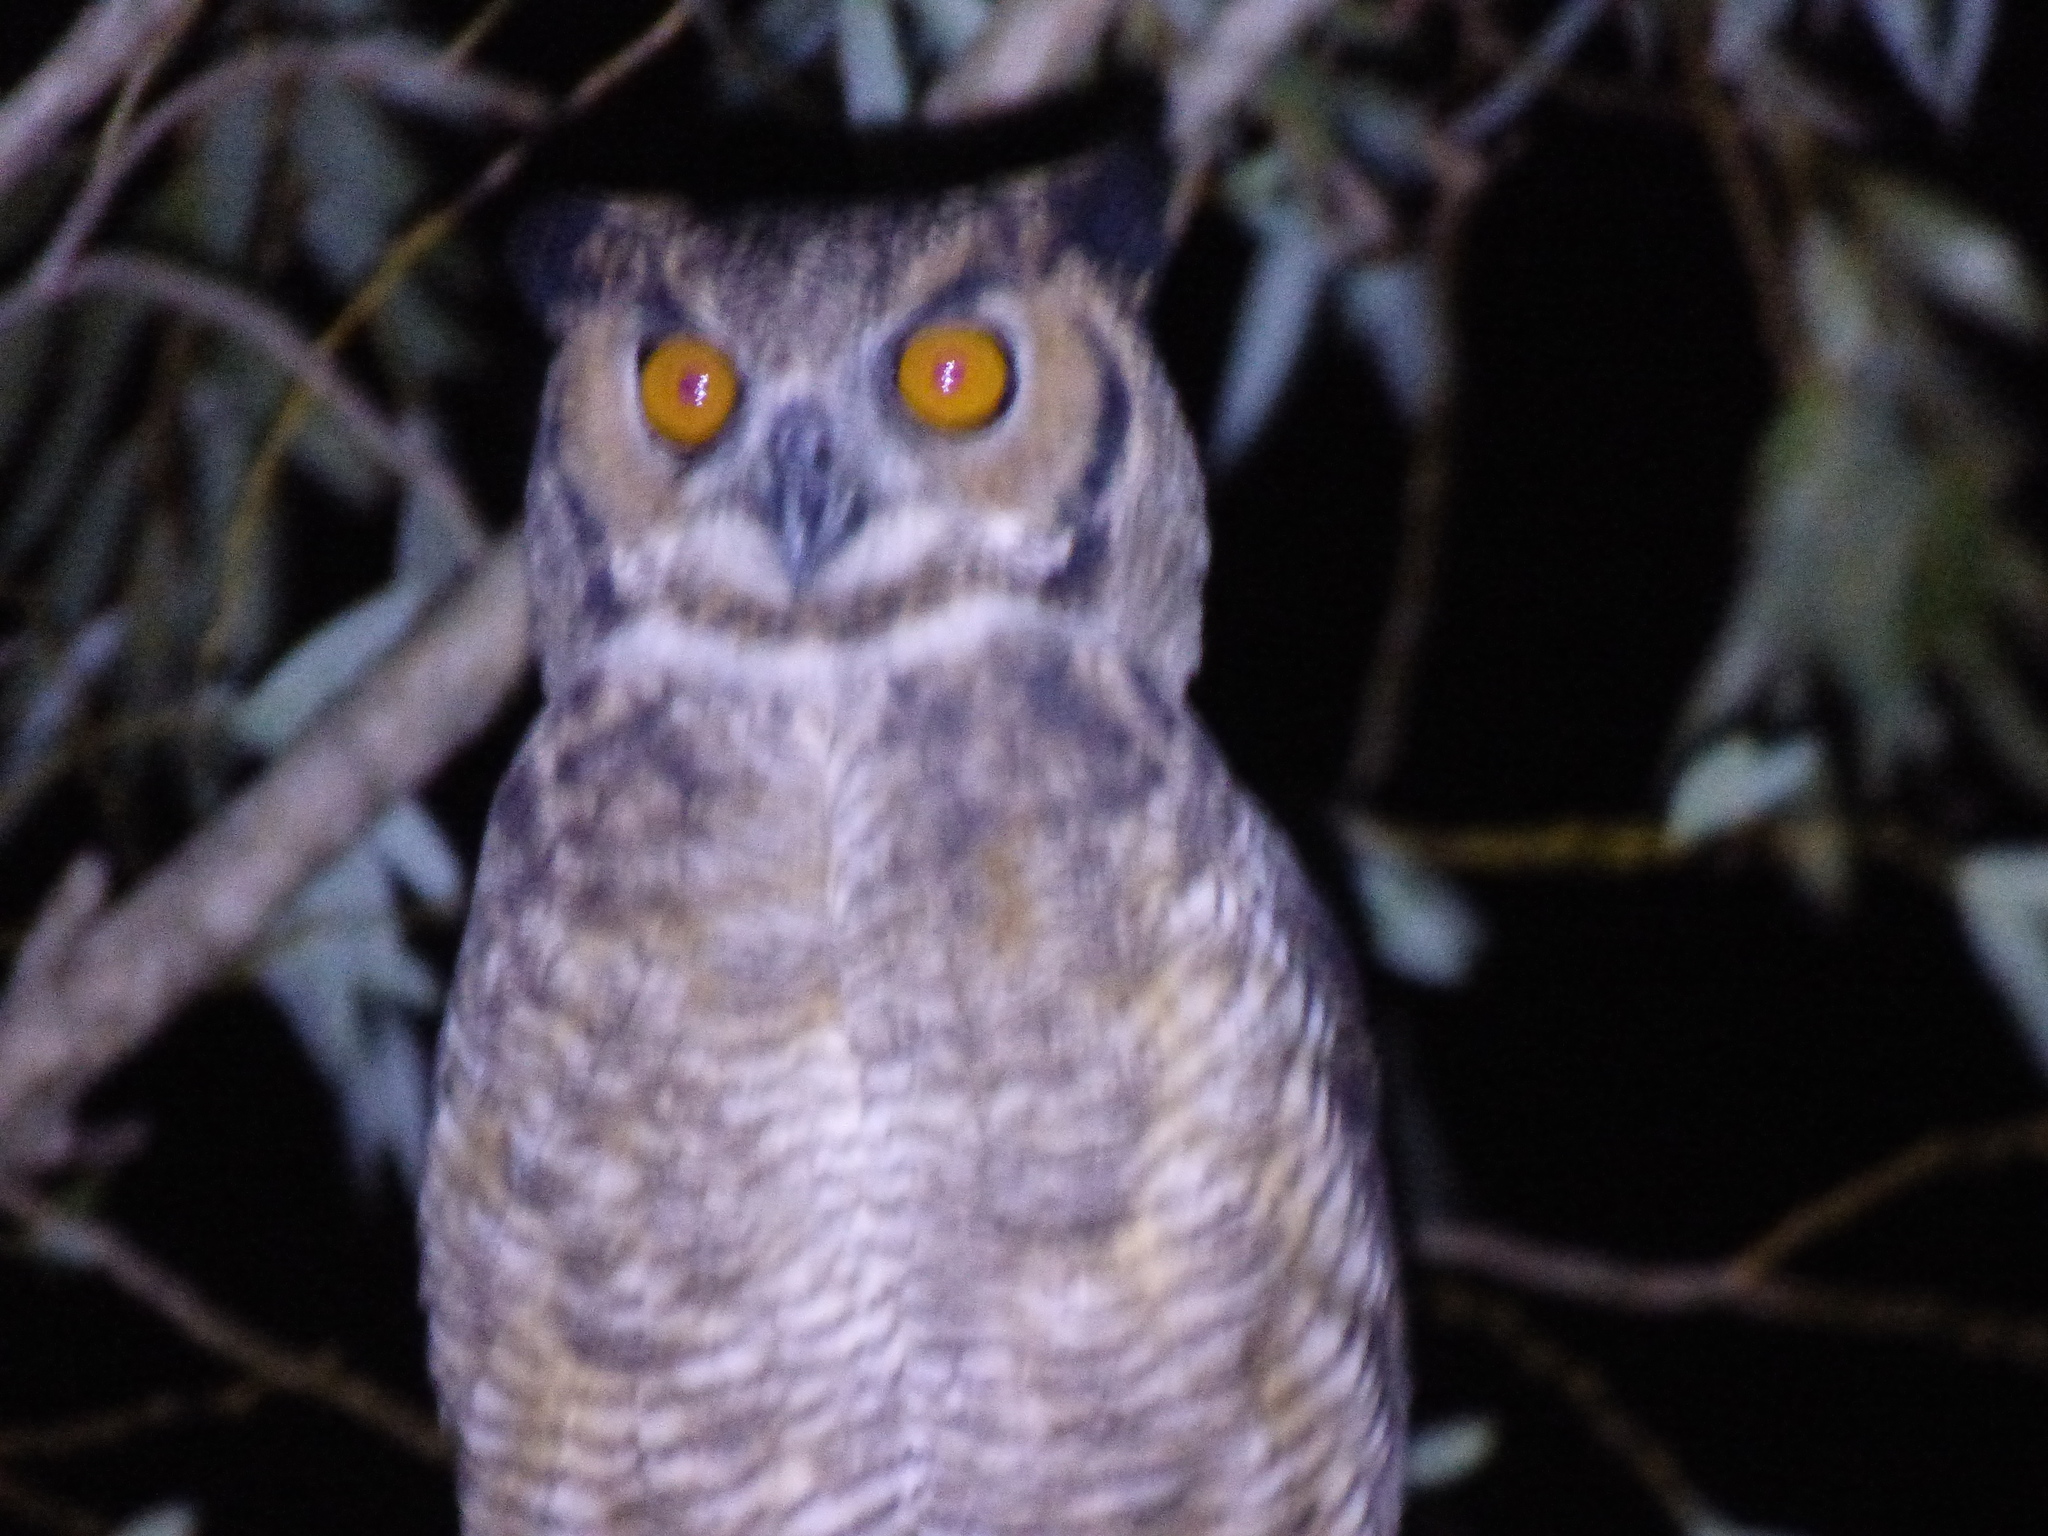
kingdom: Animalia
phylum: Chordata
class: Aves
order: Strigiformes
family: Strigidae
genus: Bubo
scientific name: Bubo virginianus
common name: Great horned owl
